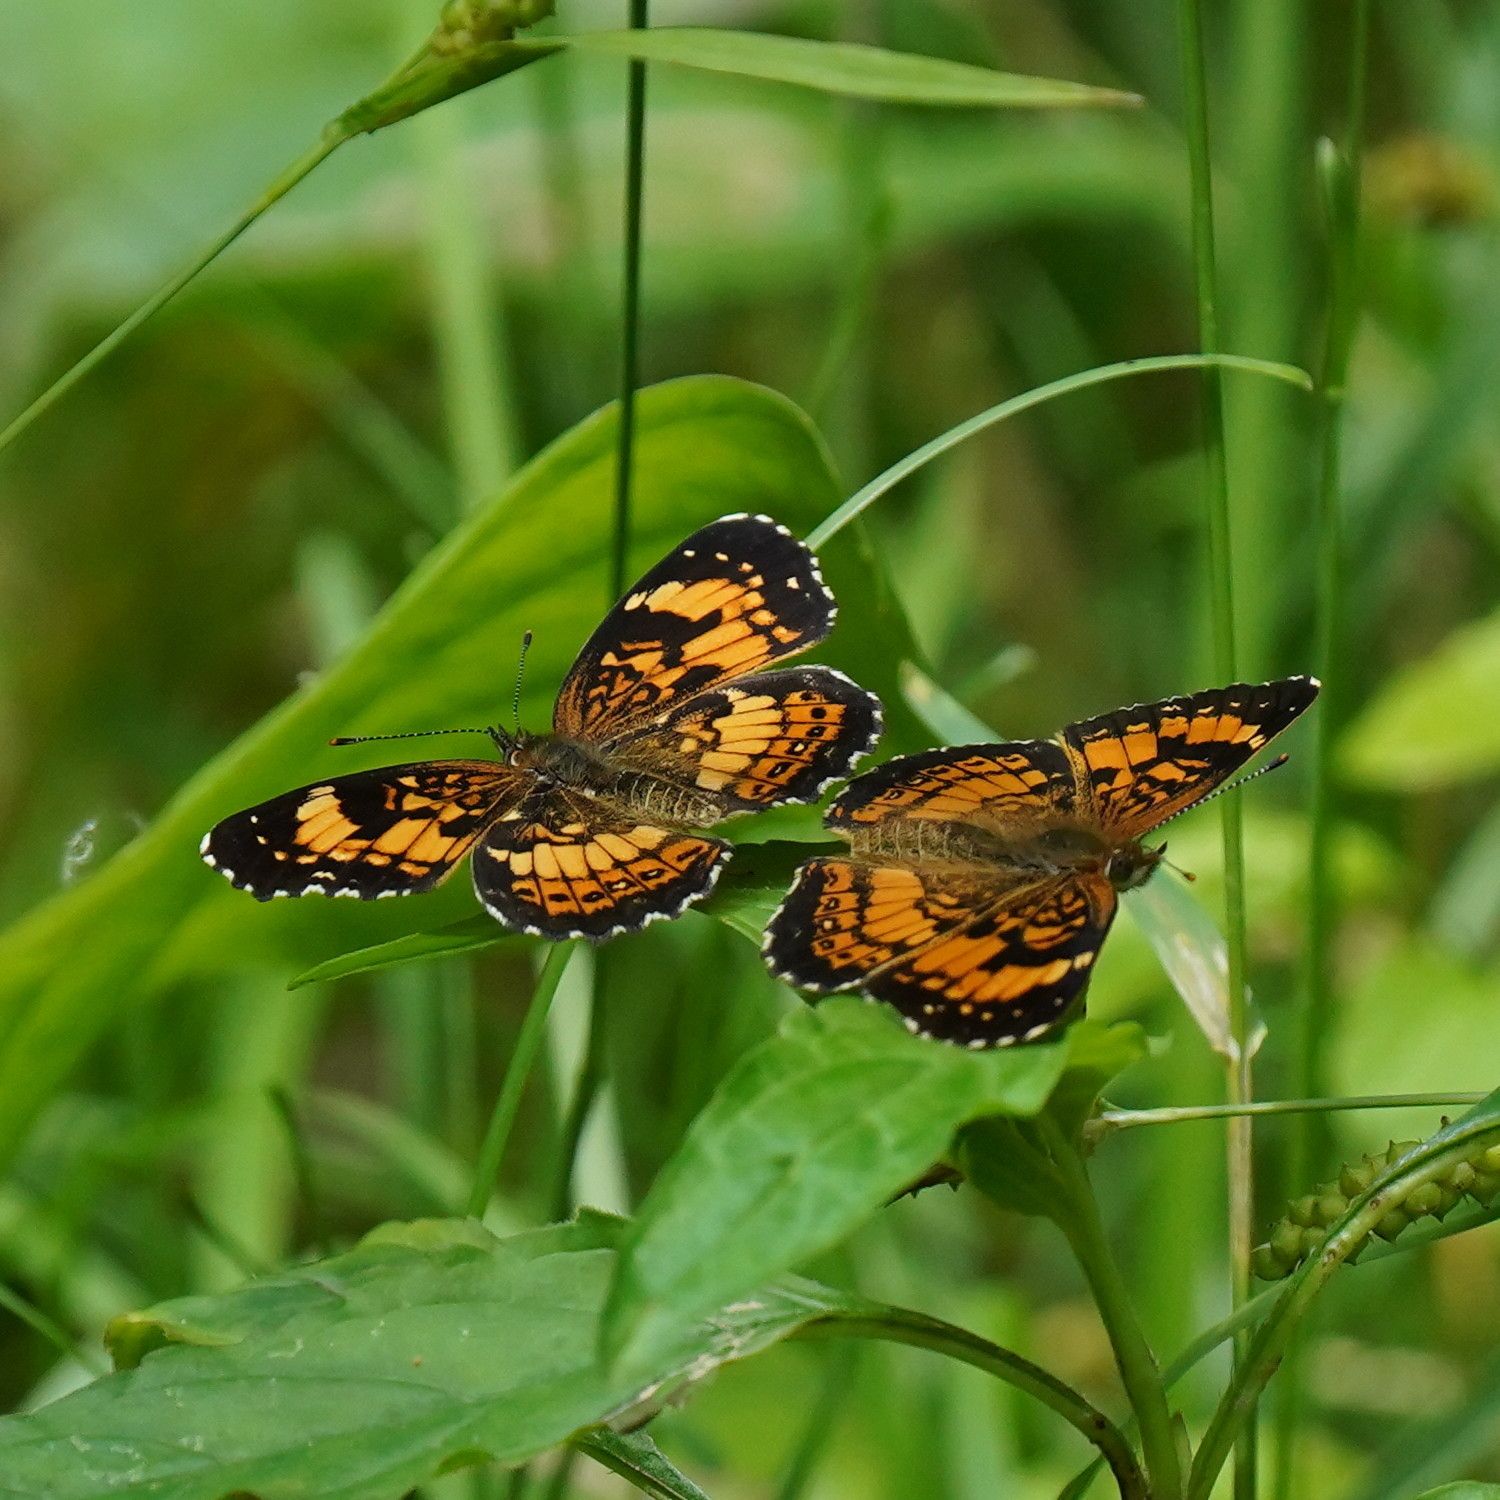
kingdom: Animalia
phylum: Arthropoda
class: Insecta
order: Lepidoptera
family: Nymphalidae
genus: Chlosyne
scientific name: Chlosyne nycteis
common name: Silvery checkerspot
